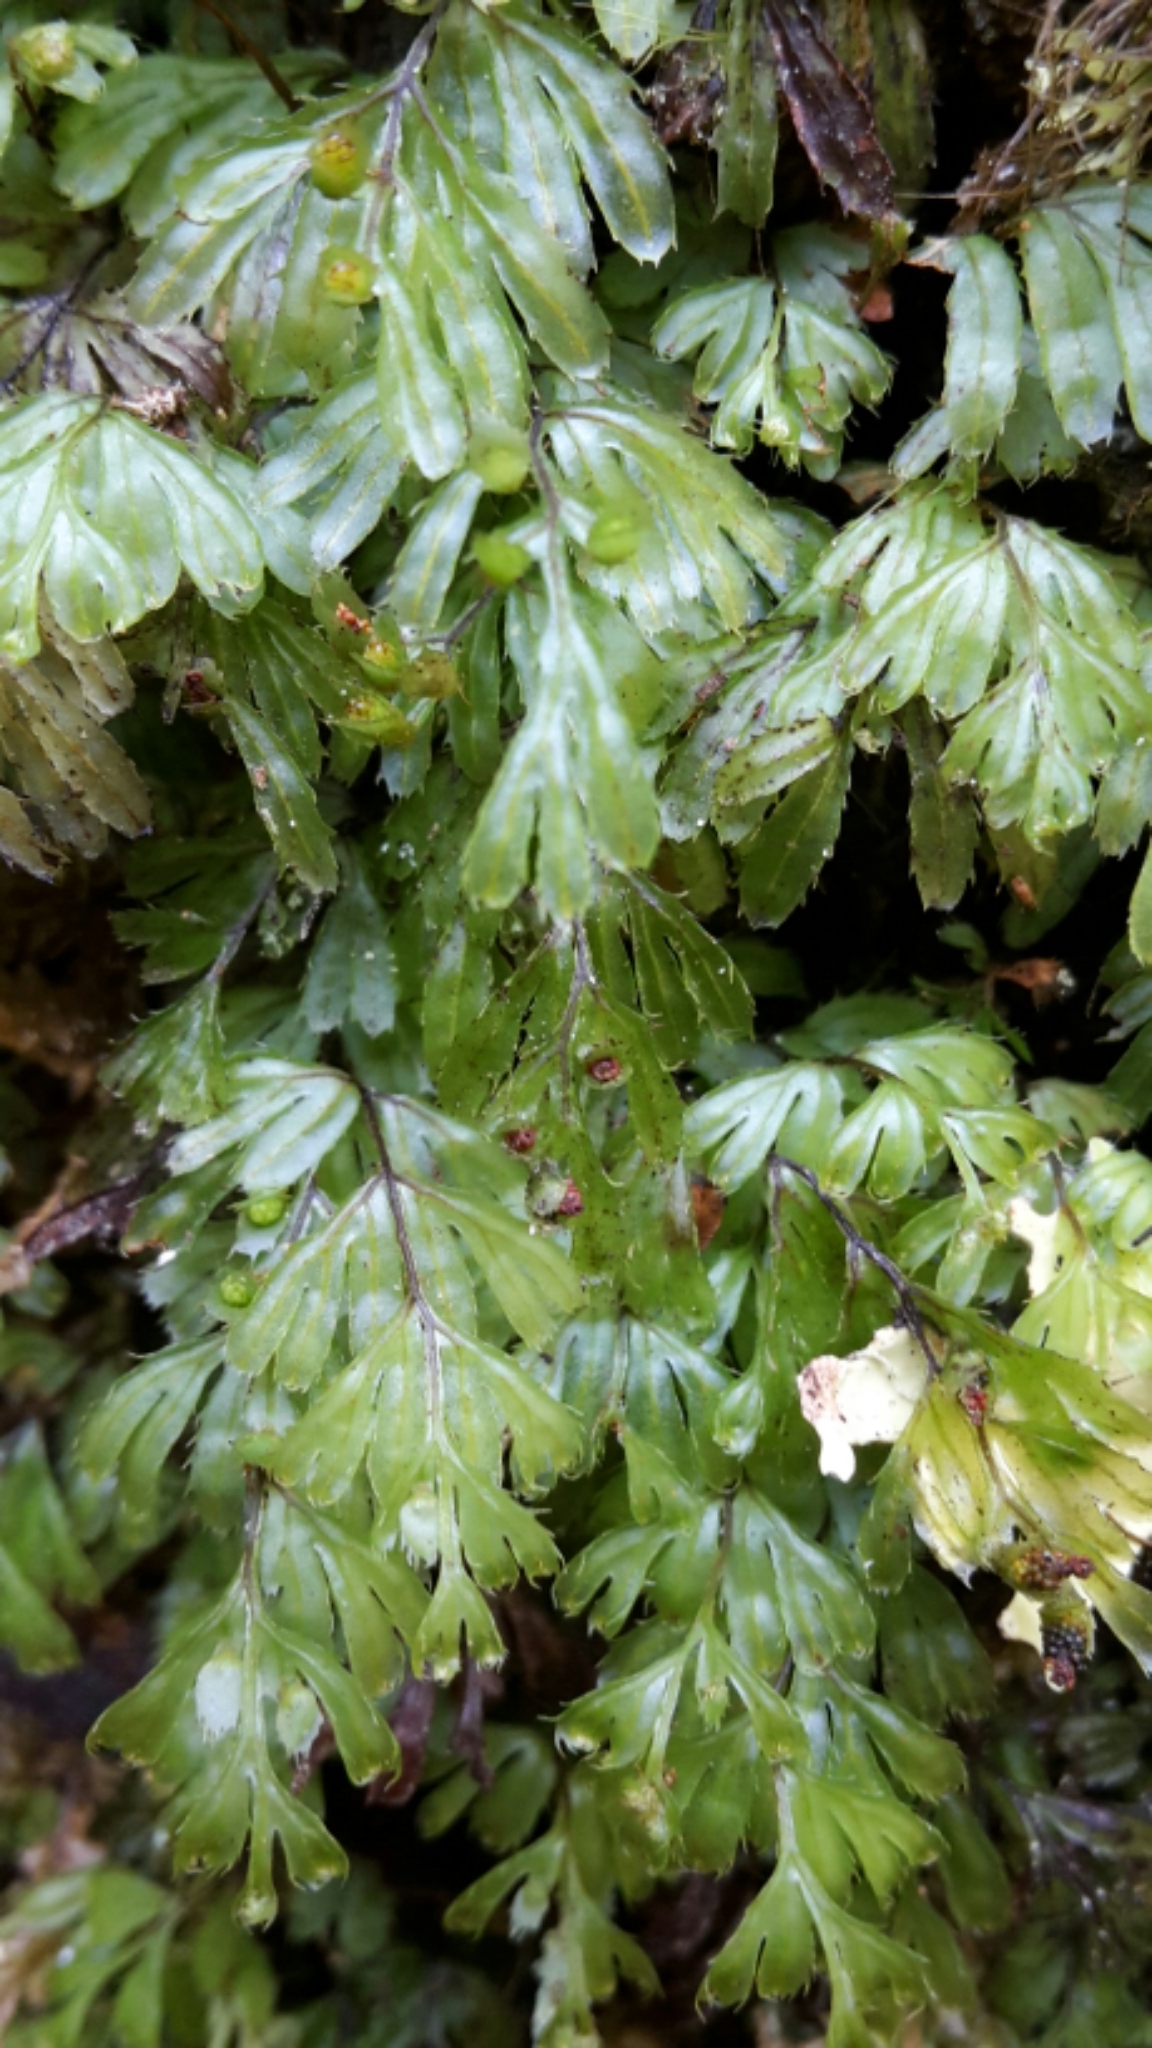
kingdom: Plantae
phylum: Tracheophyta
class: Polypodiopsida
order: Hymenophyllales
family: Hymenophyllaceae
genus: Hymenophyllum
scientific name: Hymenophyllum revolutum
